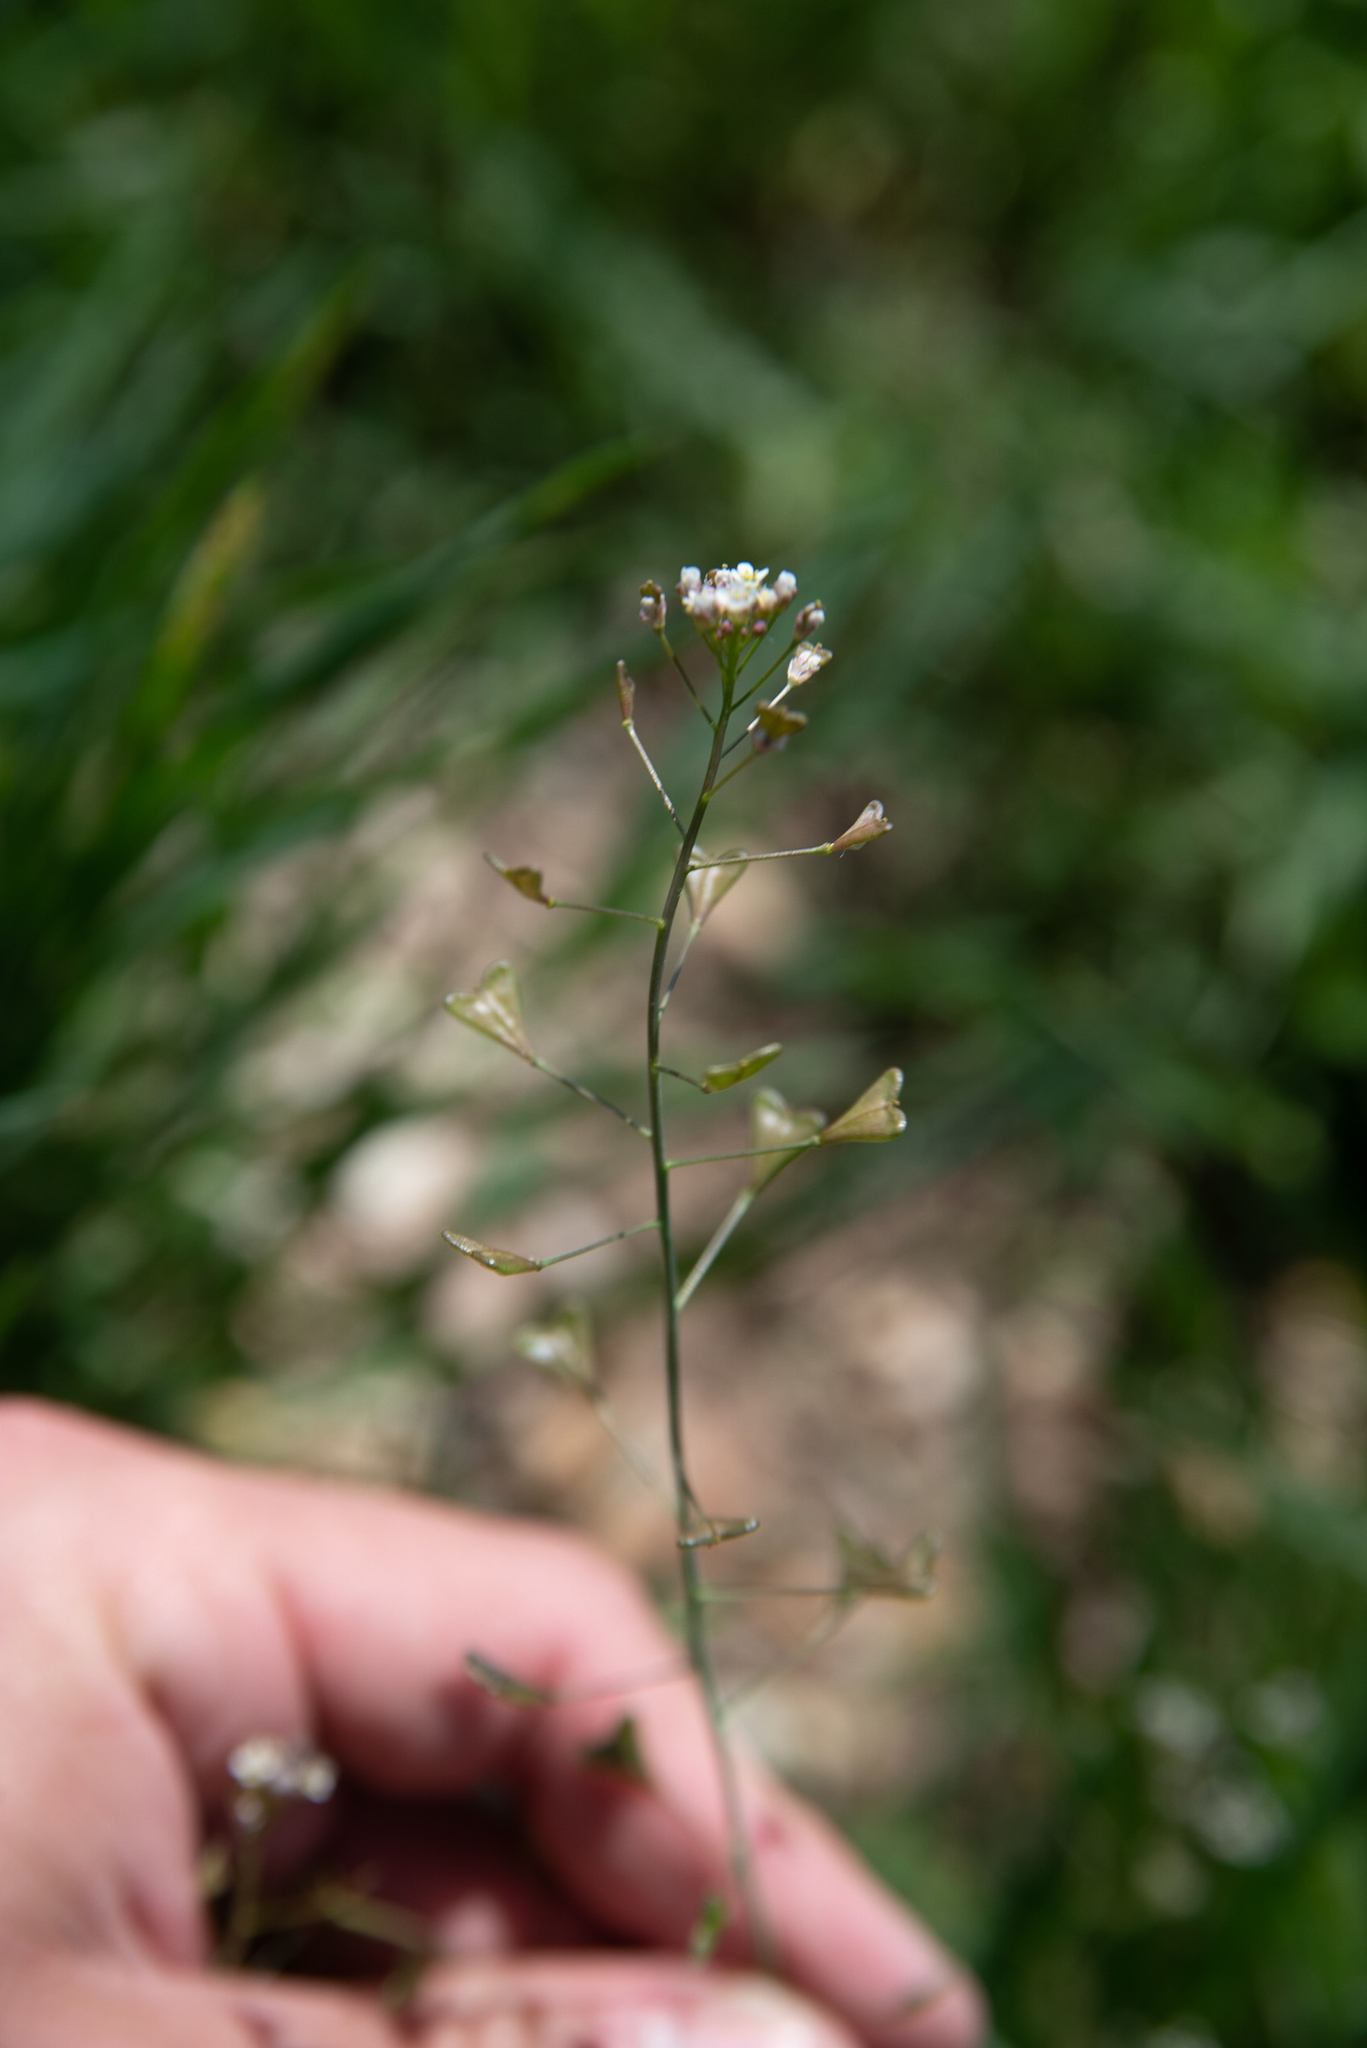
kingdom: Plantae
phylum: Tracheophyta
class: Magnoliopsida
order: Brassicales
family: Brassicaceae
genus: Capsella
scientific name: Capsella bursa-pastoris
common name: Shepherd's purse
